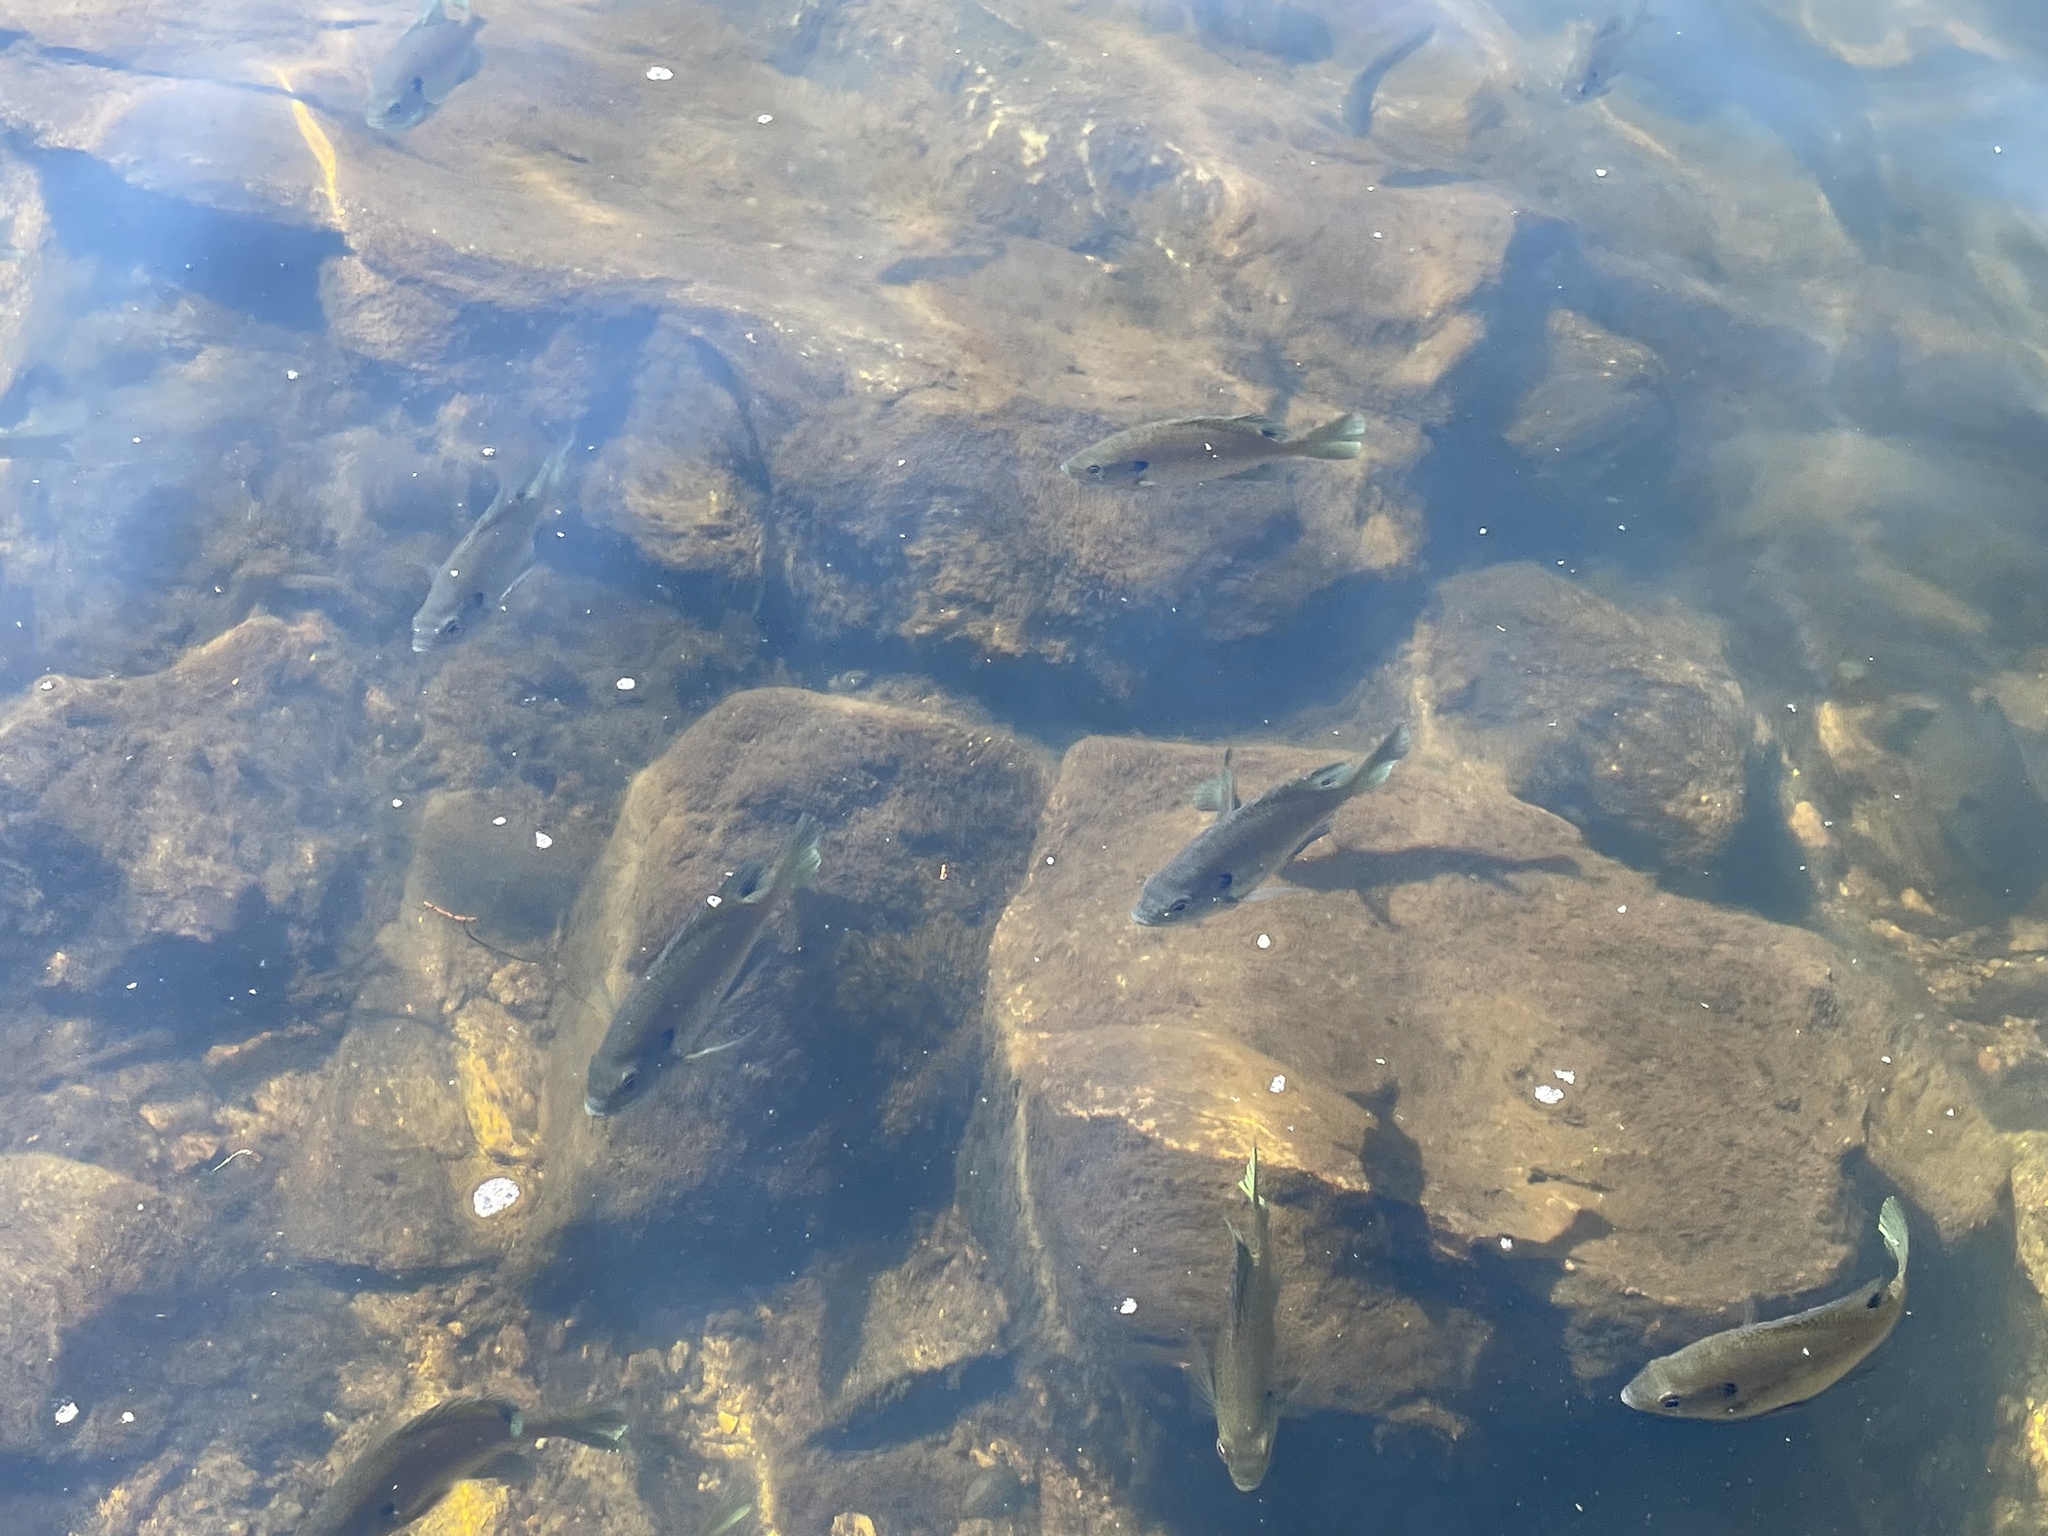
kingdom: Animalia
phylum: Chordata
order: Perciformes
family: Centrarchidae
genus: Lepomis
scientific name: Lepomis macrochirus
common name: Bluegill
